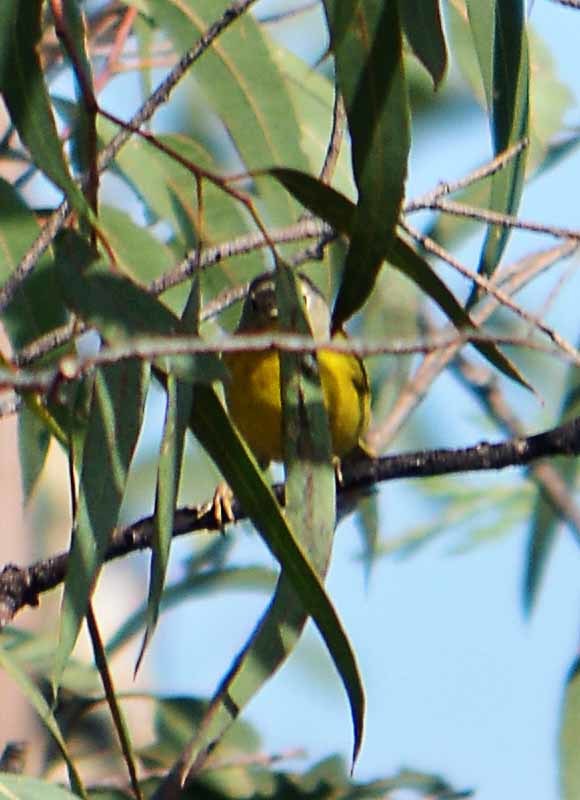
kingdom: Animalia
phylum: Chordata
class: Aves
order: Passeriformes
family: Parulidae
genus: Leiothlypis
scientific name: Leiothlypis ruficapilla
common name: Nashville warbler
